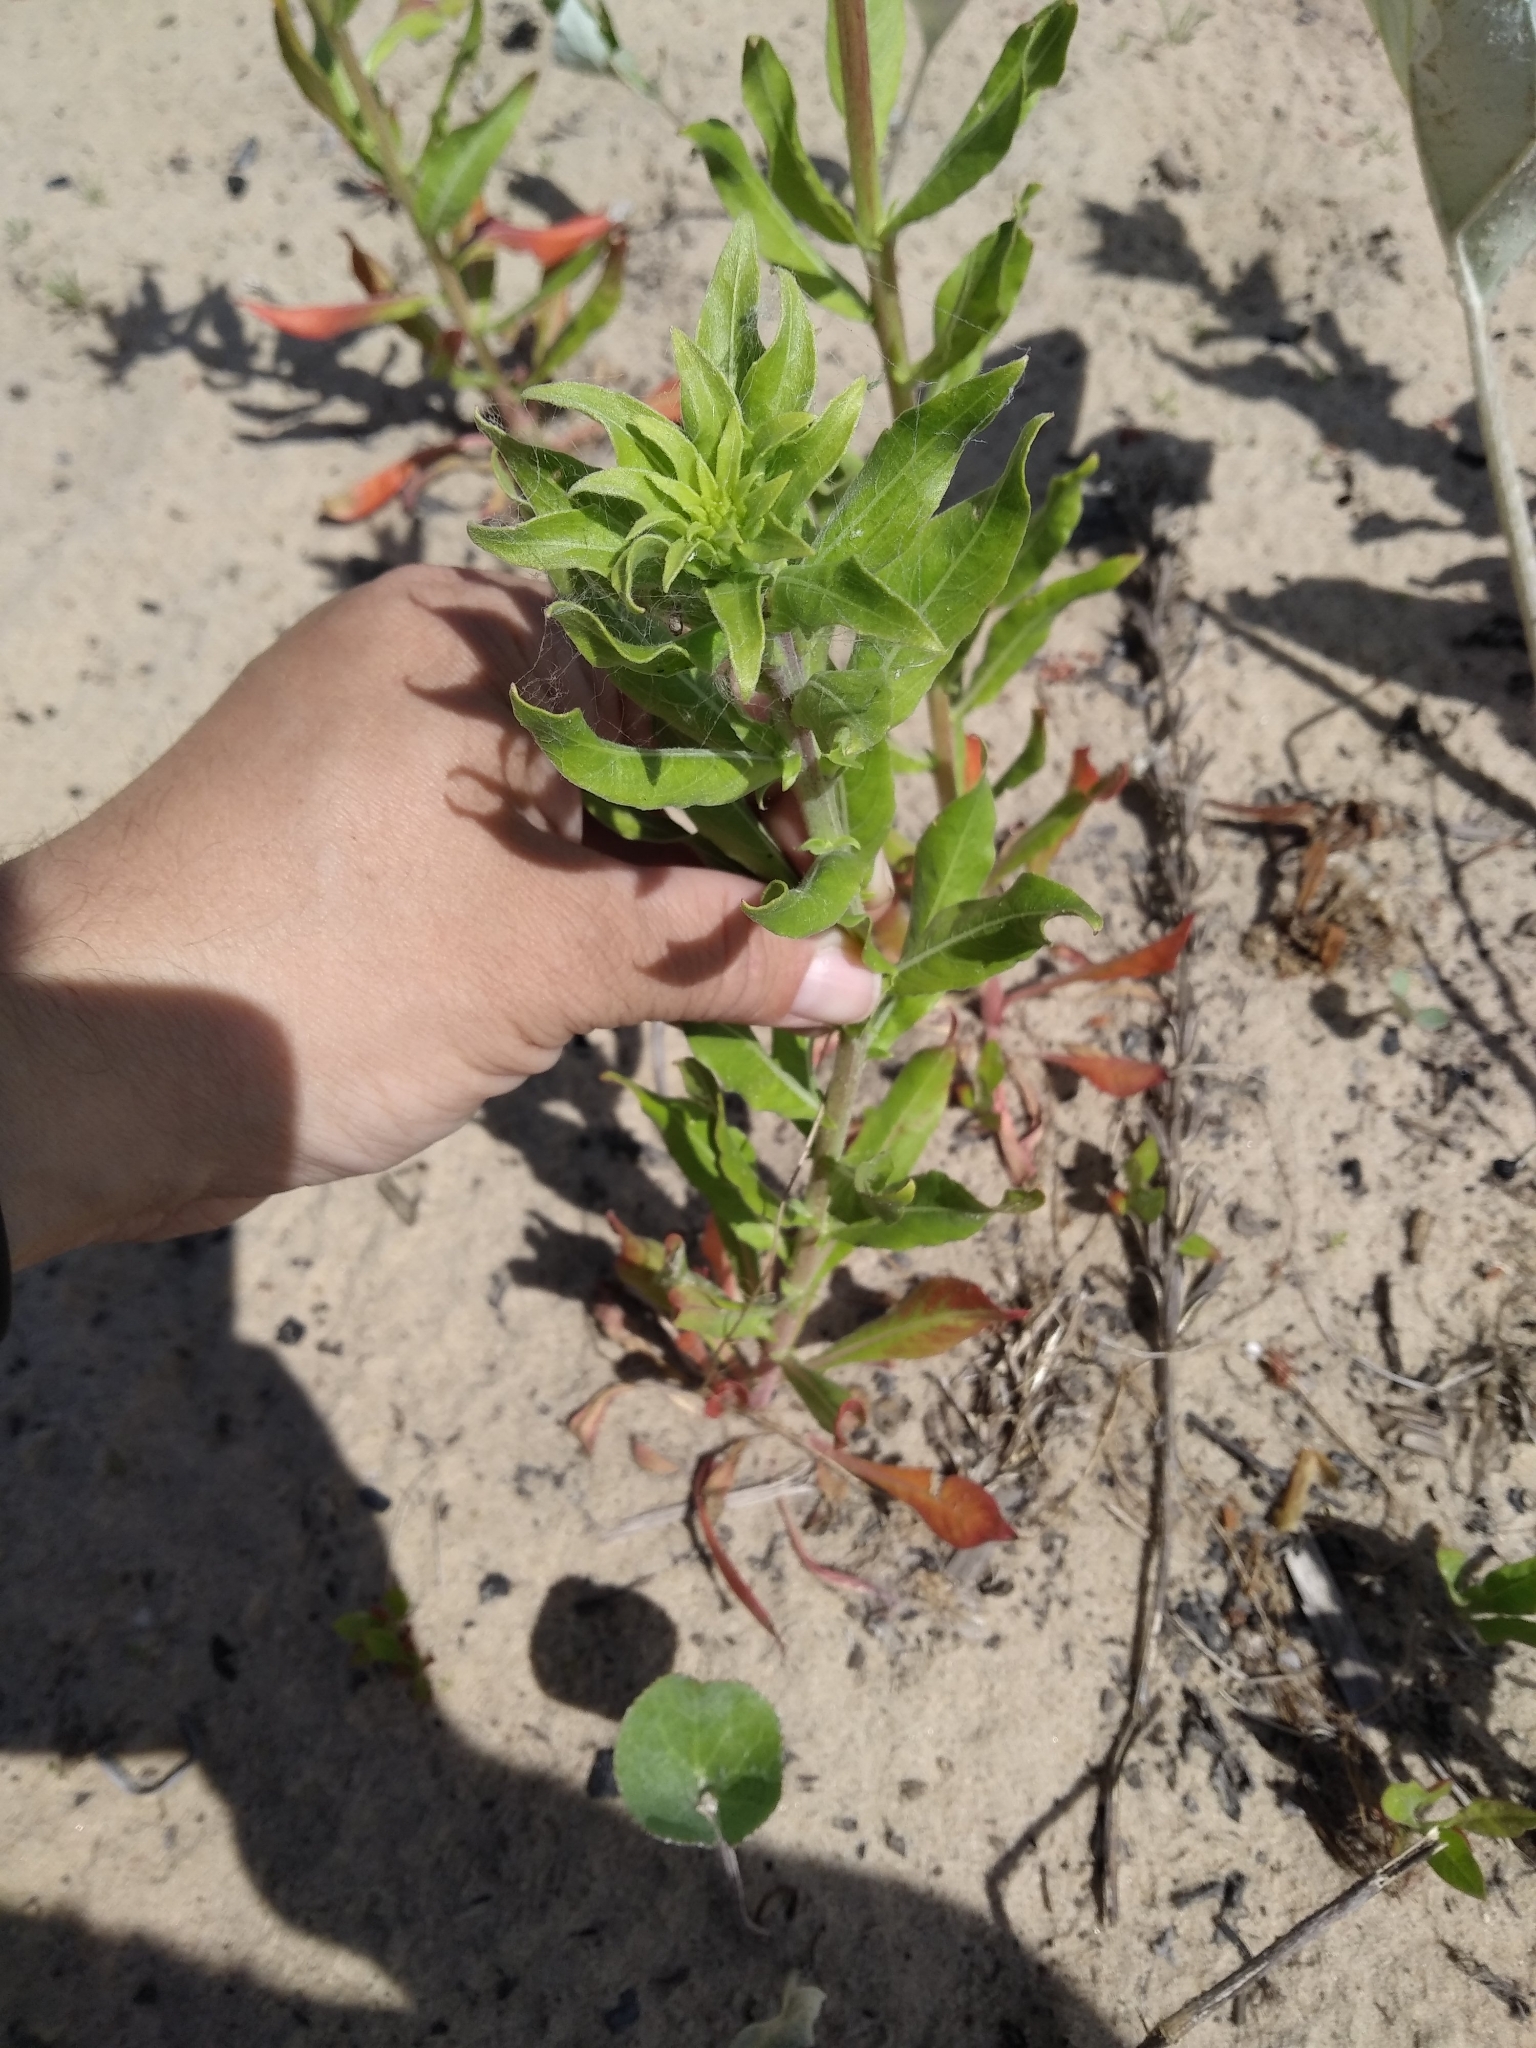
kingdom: Plantae
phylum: Tracheophyta
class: Magnoliopsida
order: Myrtales
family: Onagraceae
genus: Oenothera
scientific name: Oenothera villosa
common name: Hairy evening-primrose
